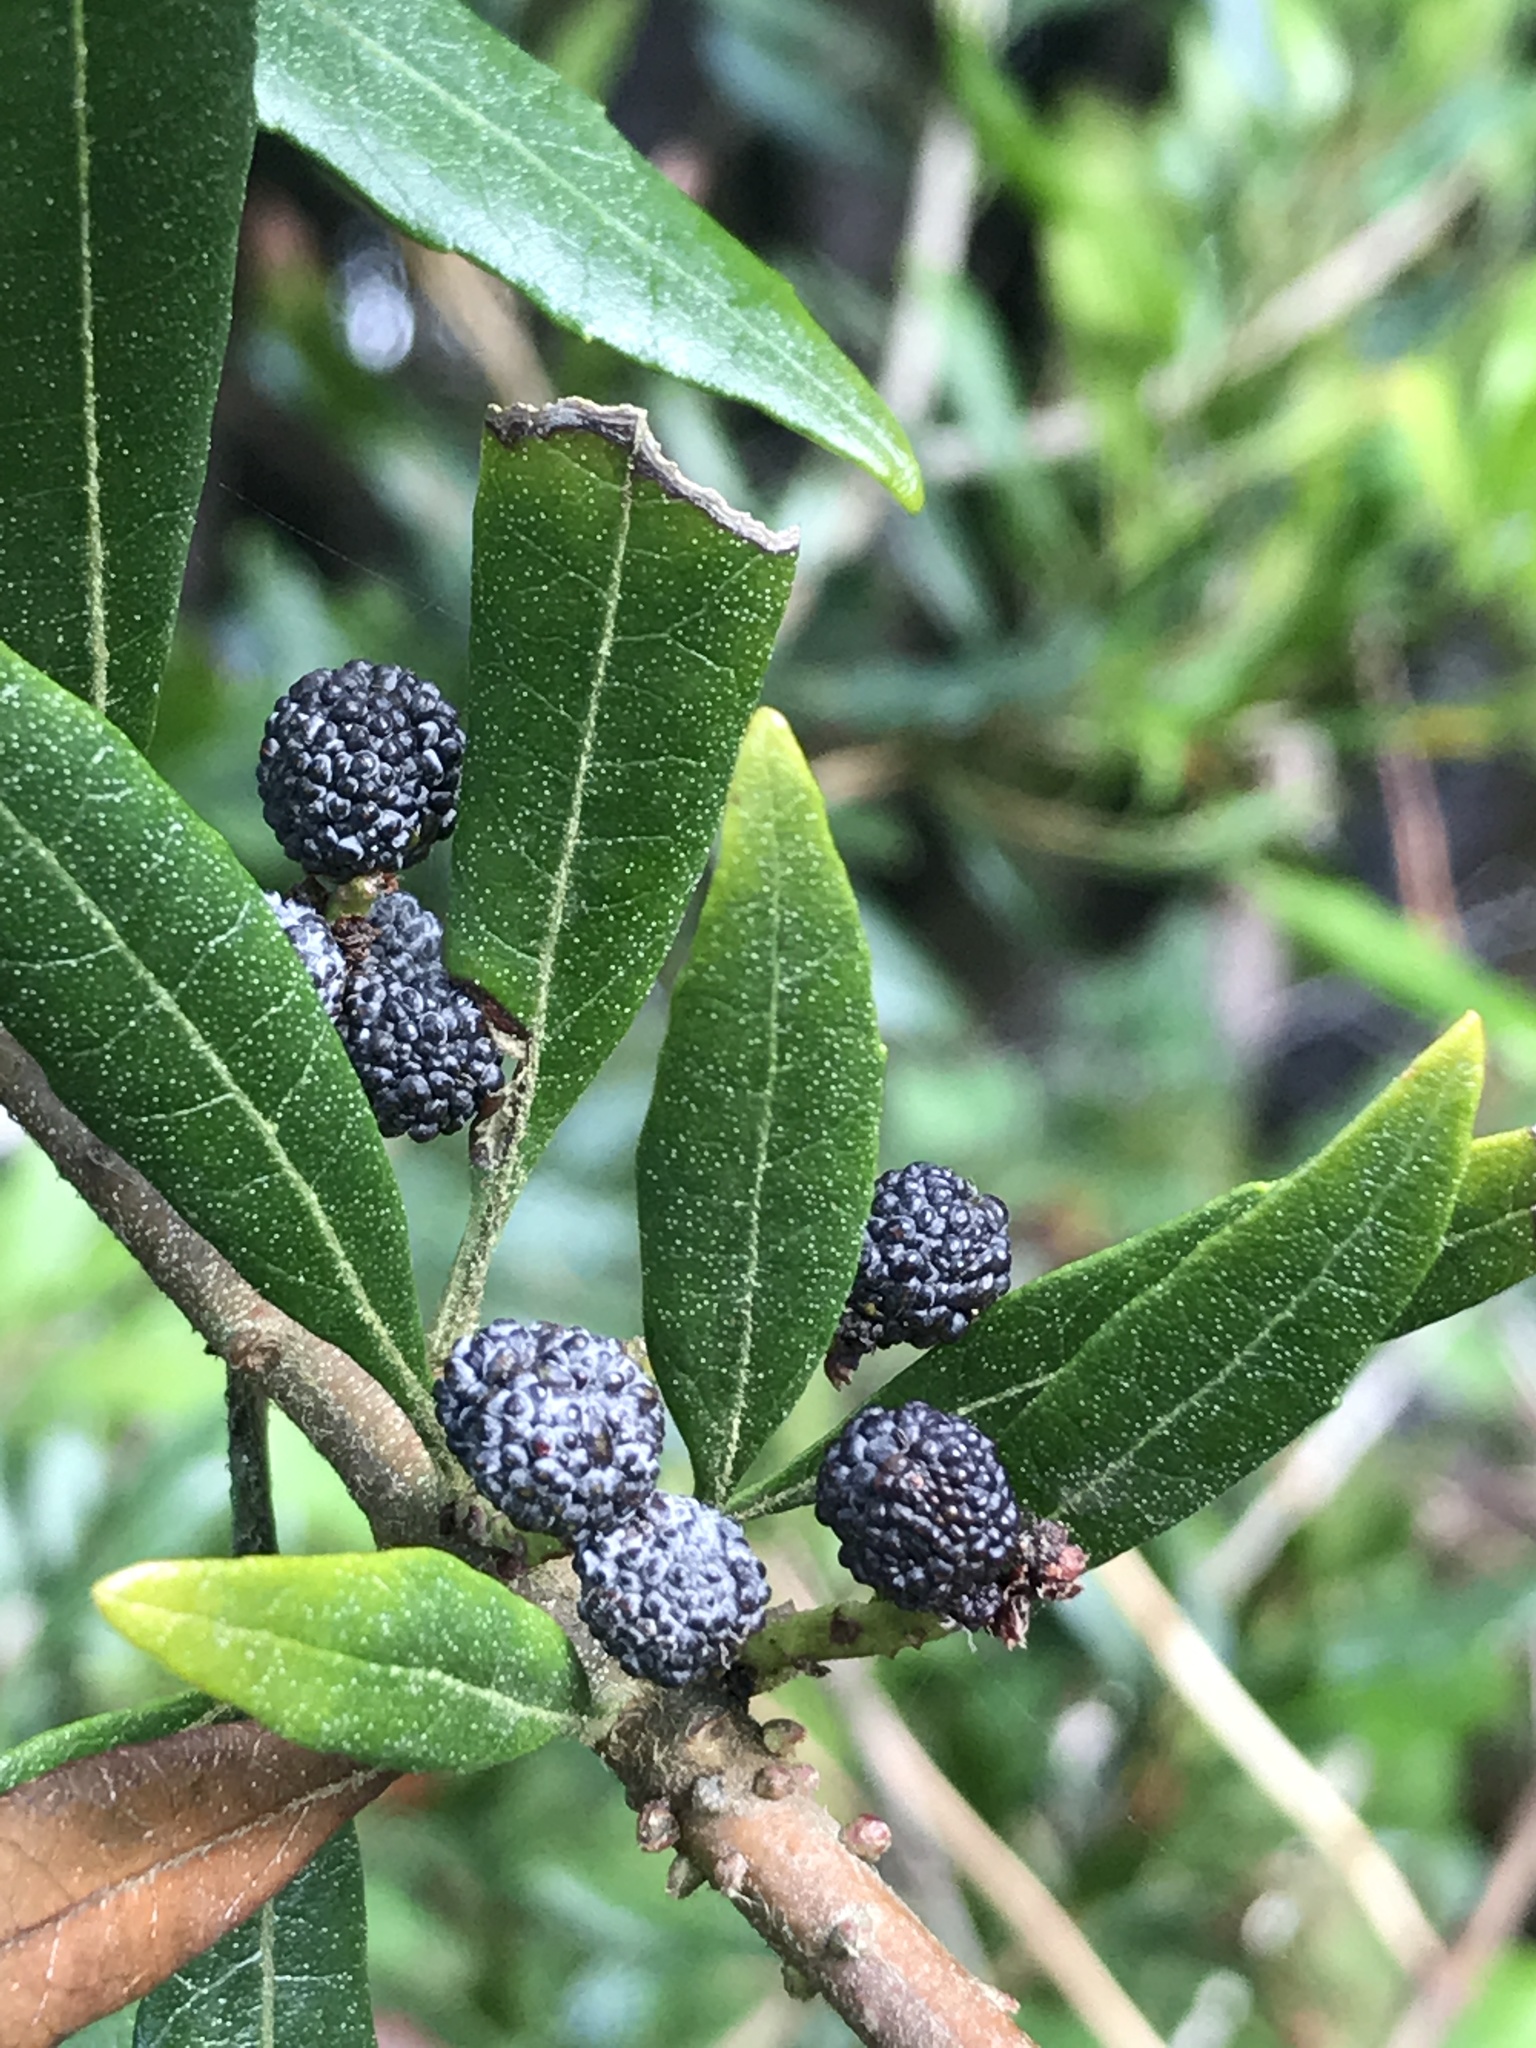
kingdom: Plantae
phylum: Tracheophyta
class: Magnoliopsida
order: Fagales
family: Myricaceae
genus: Morella
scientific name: Morella californica
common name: California wax-myrtle
